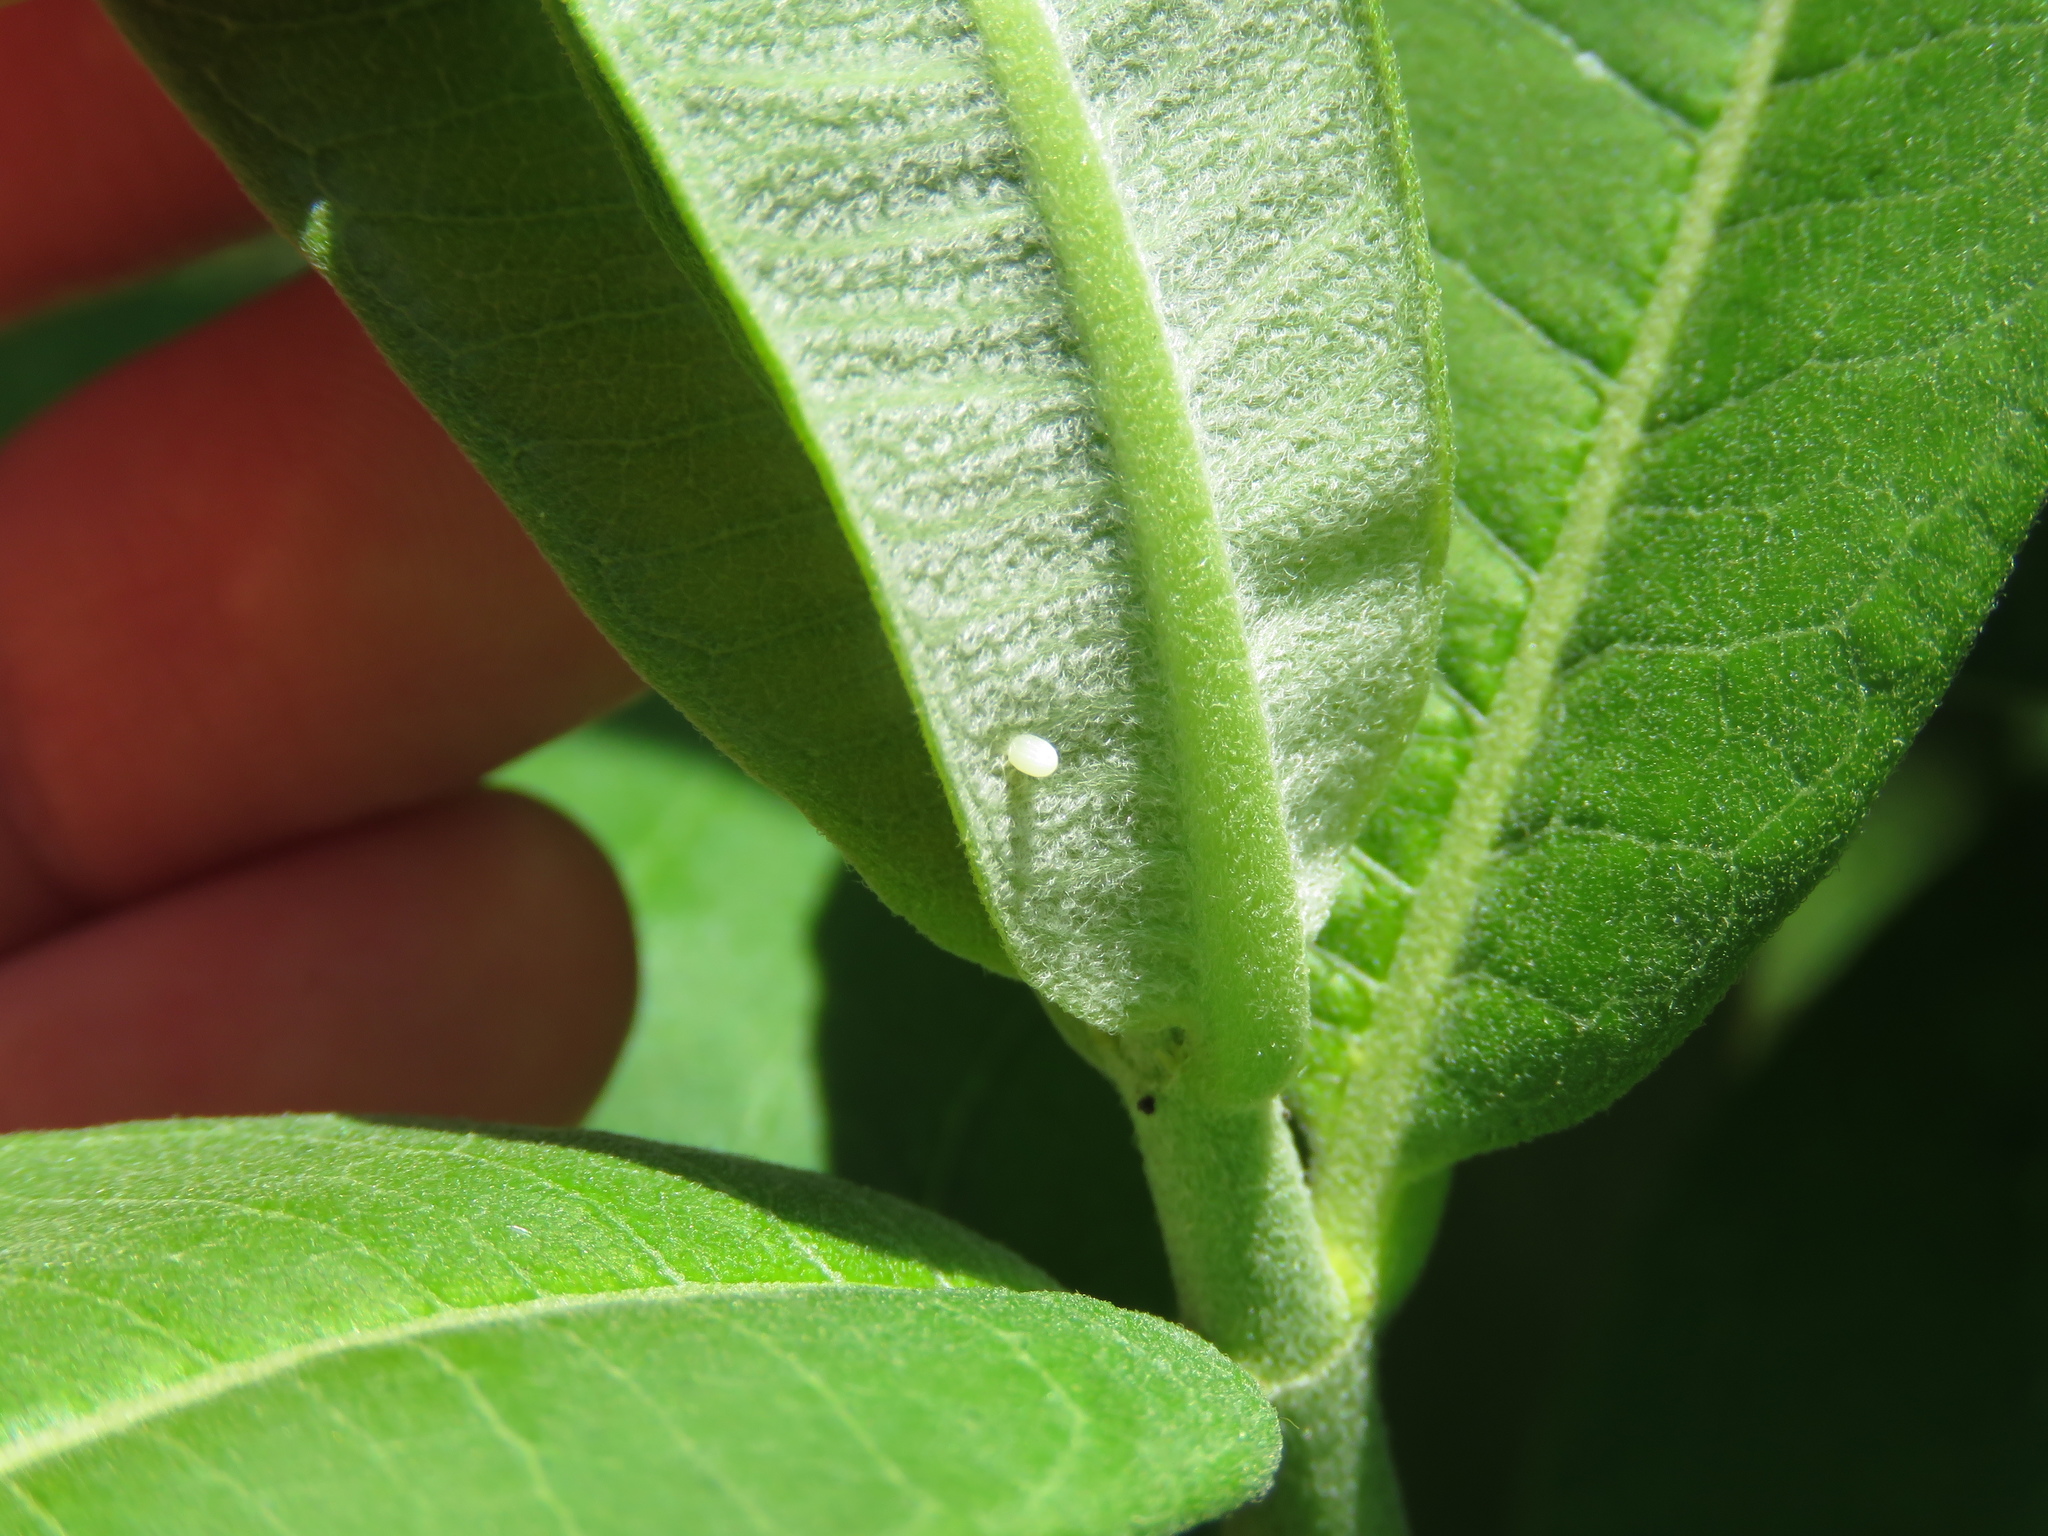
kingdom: Animalia
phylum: Arthropoda
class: Insecta
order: Lepidoptera
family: Nymphalidae
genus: Danaus
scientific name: Danaus plexippus
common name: Monarch
